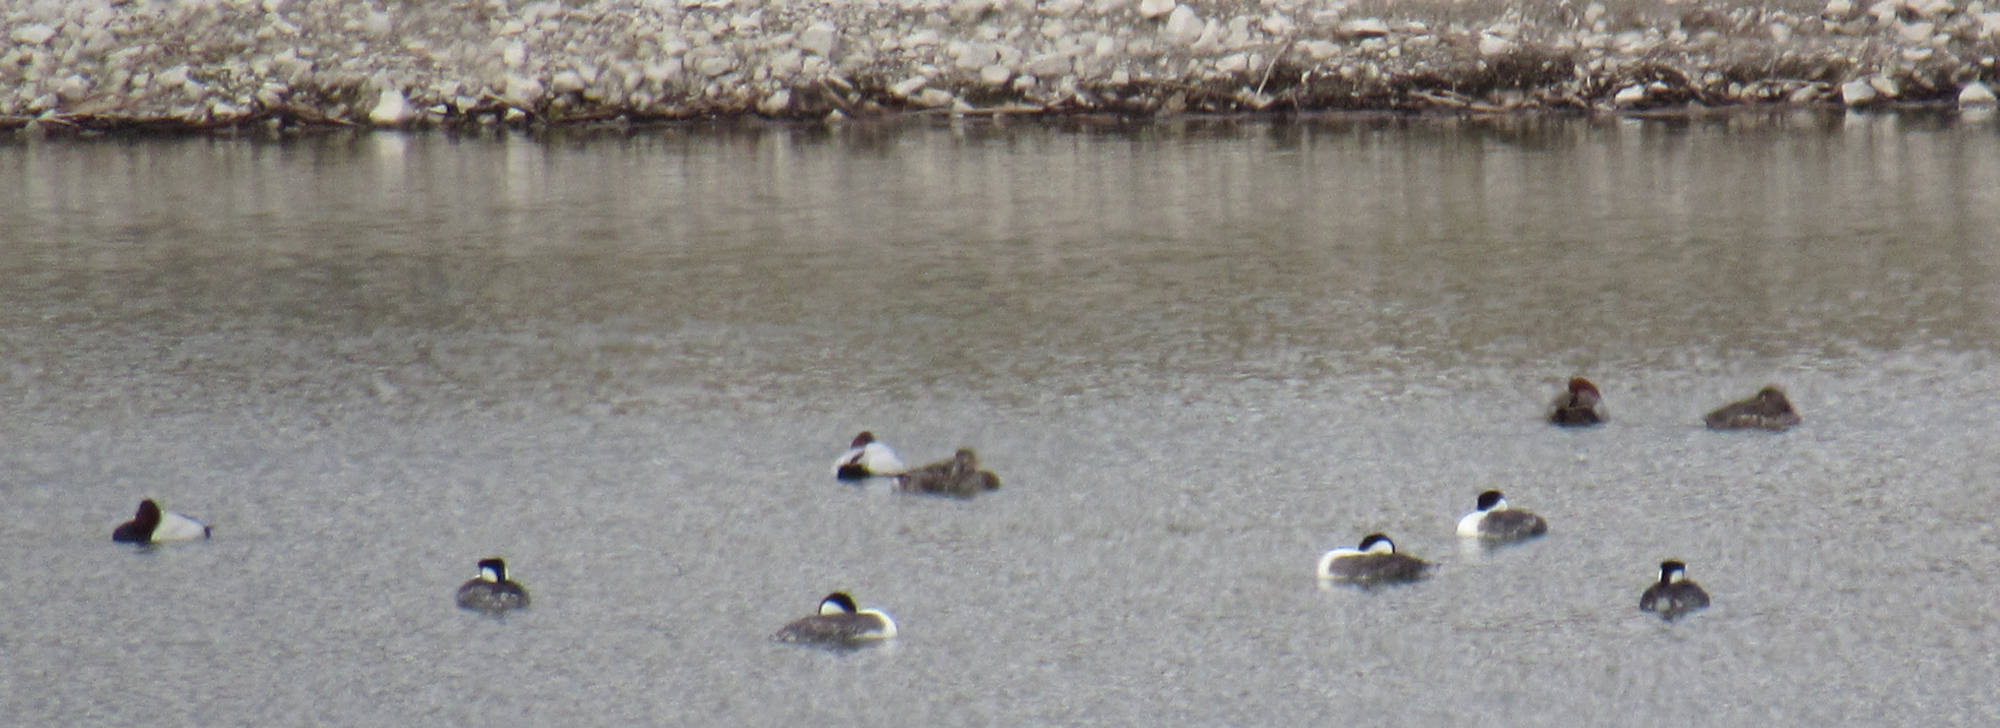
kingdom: Animalia
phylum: Chordata
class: Aves
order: Podicipediformes
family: Podicipedidae
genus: Aechmophorus
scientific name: Aechmophorus occidentalis
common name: Western grebe
